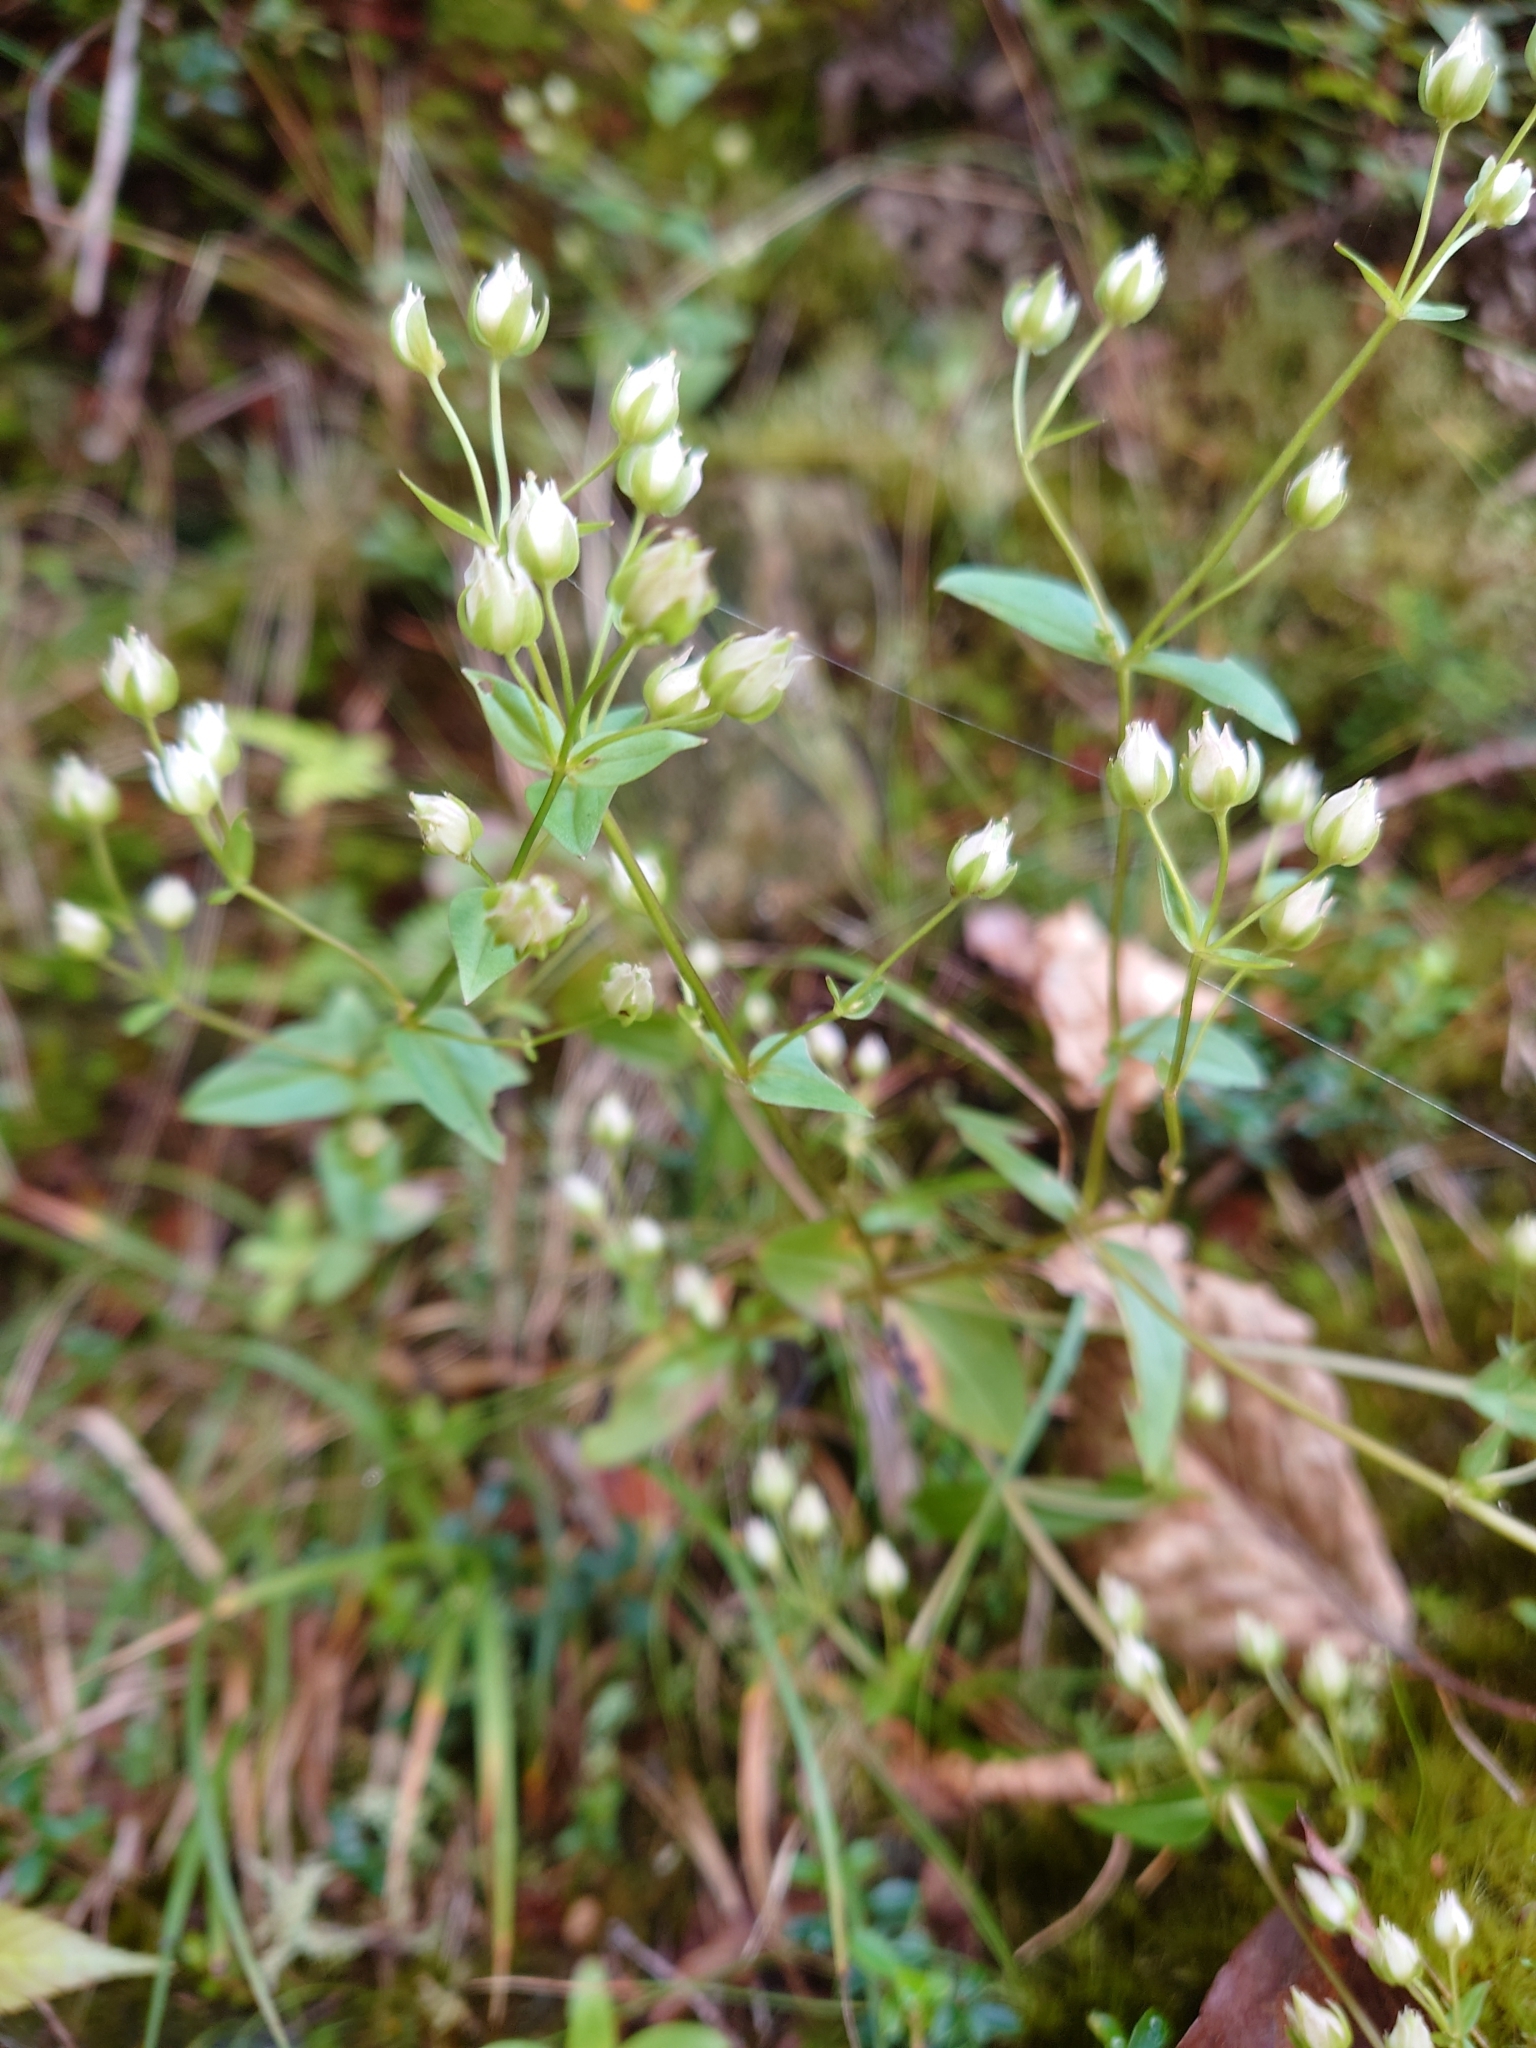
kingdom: Plantae
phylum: Tracheophyta
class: Magnoliopsida
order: Gentianales
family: Gentianaceae
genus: Swertia
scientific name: Swertia macrosperma
